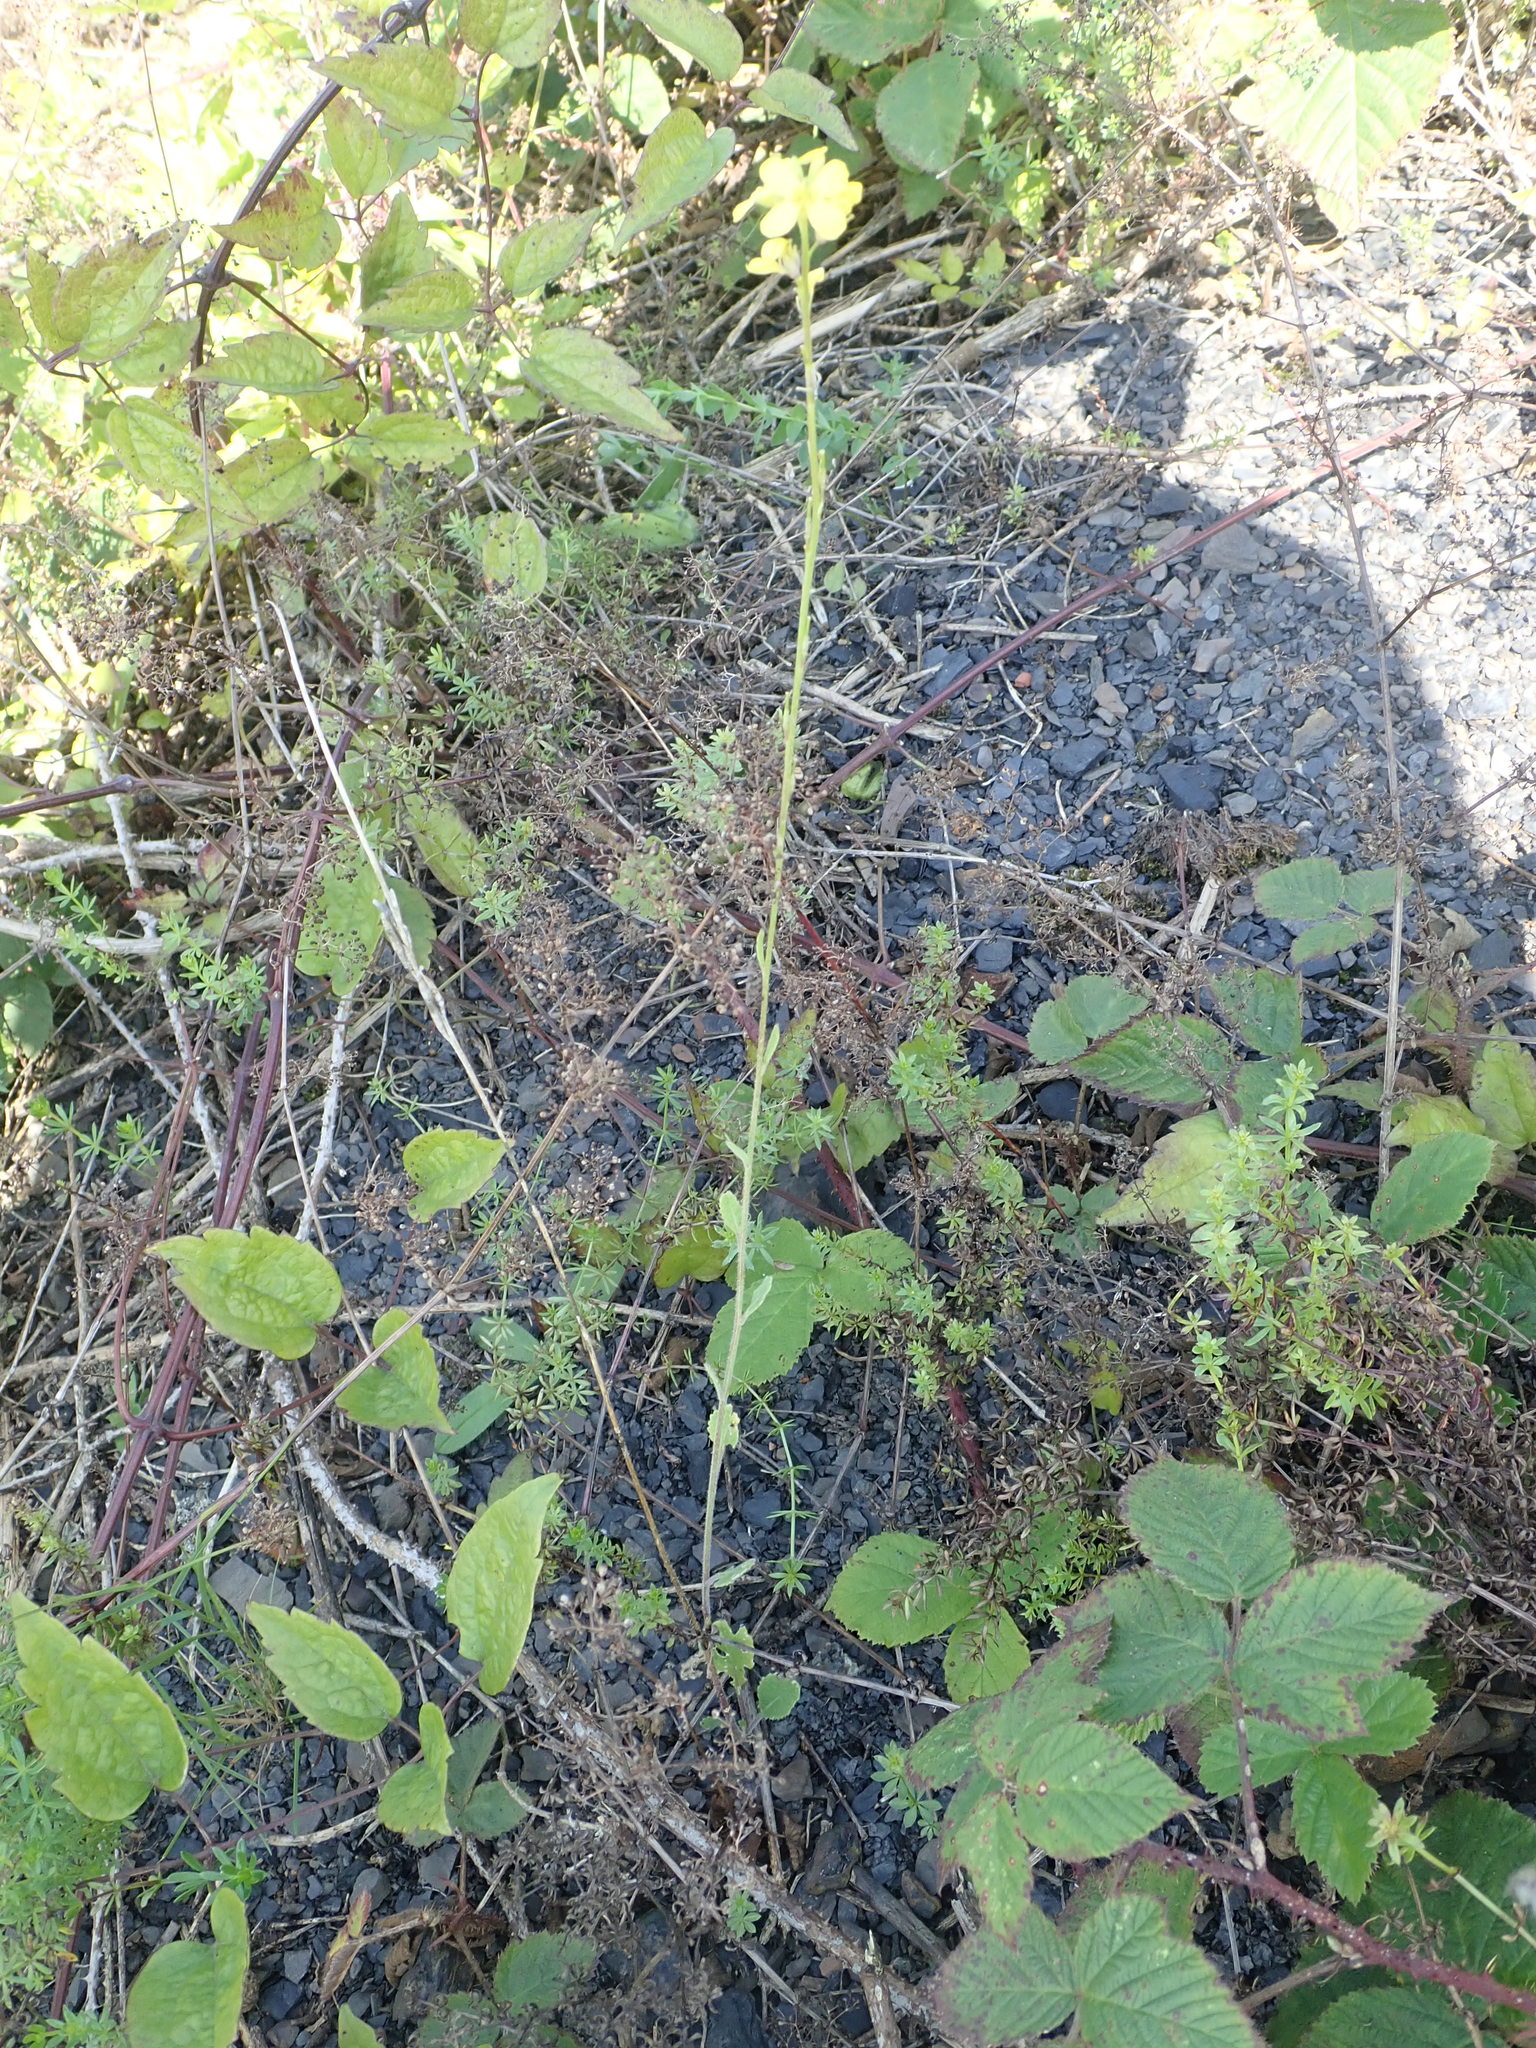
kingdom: Plantae
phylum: Tracheophyta
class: Magnoliopsida
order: Brassicales
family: Brassicaceae
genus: Hirschfeldia
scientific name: Hirschfeldia incana
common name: Hoary mustard
